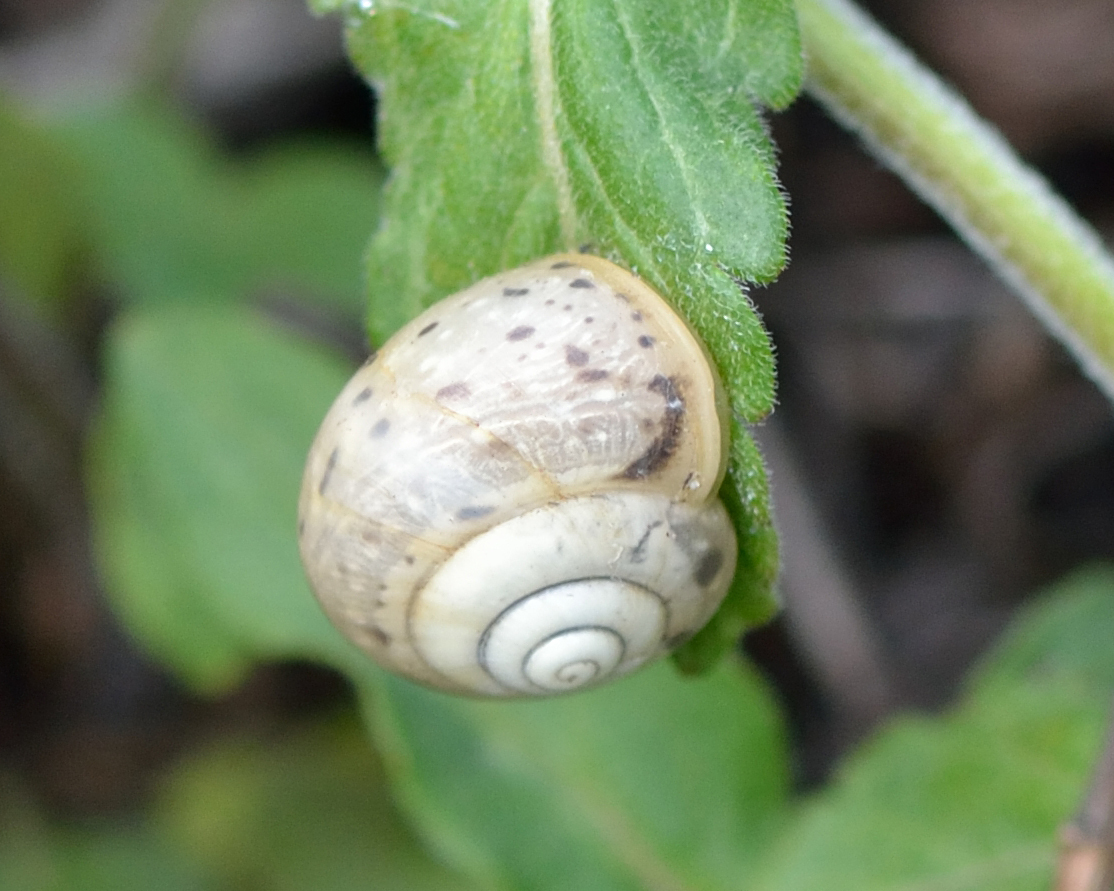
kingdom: Animalia
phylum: Mollusca
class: Gastropoda
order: Stylommatophora
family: Camaenidae
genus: Fruticicola
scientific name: Fruticicola fruticum
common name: Bush snail
